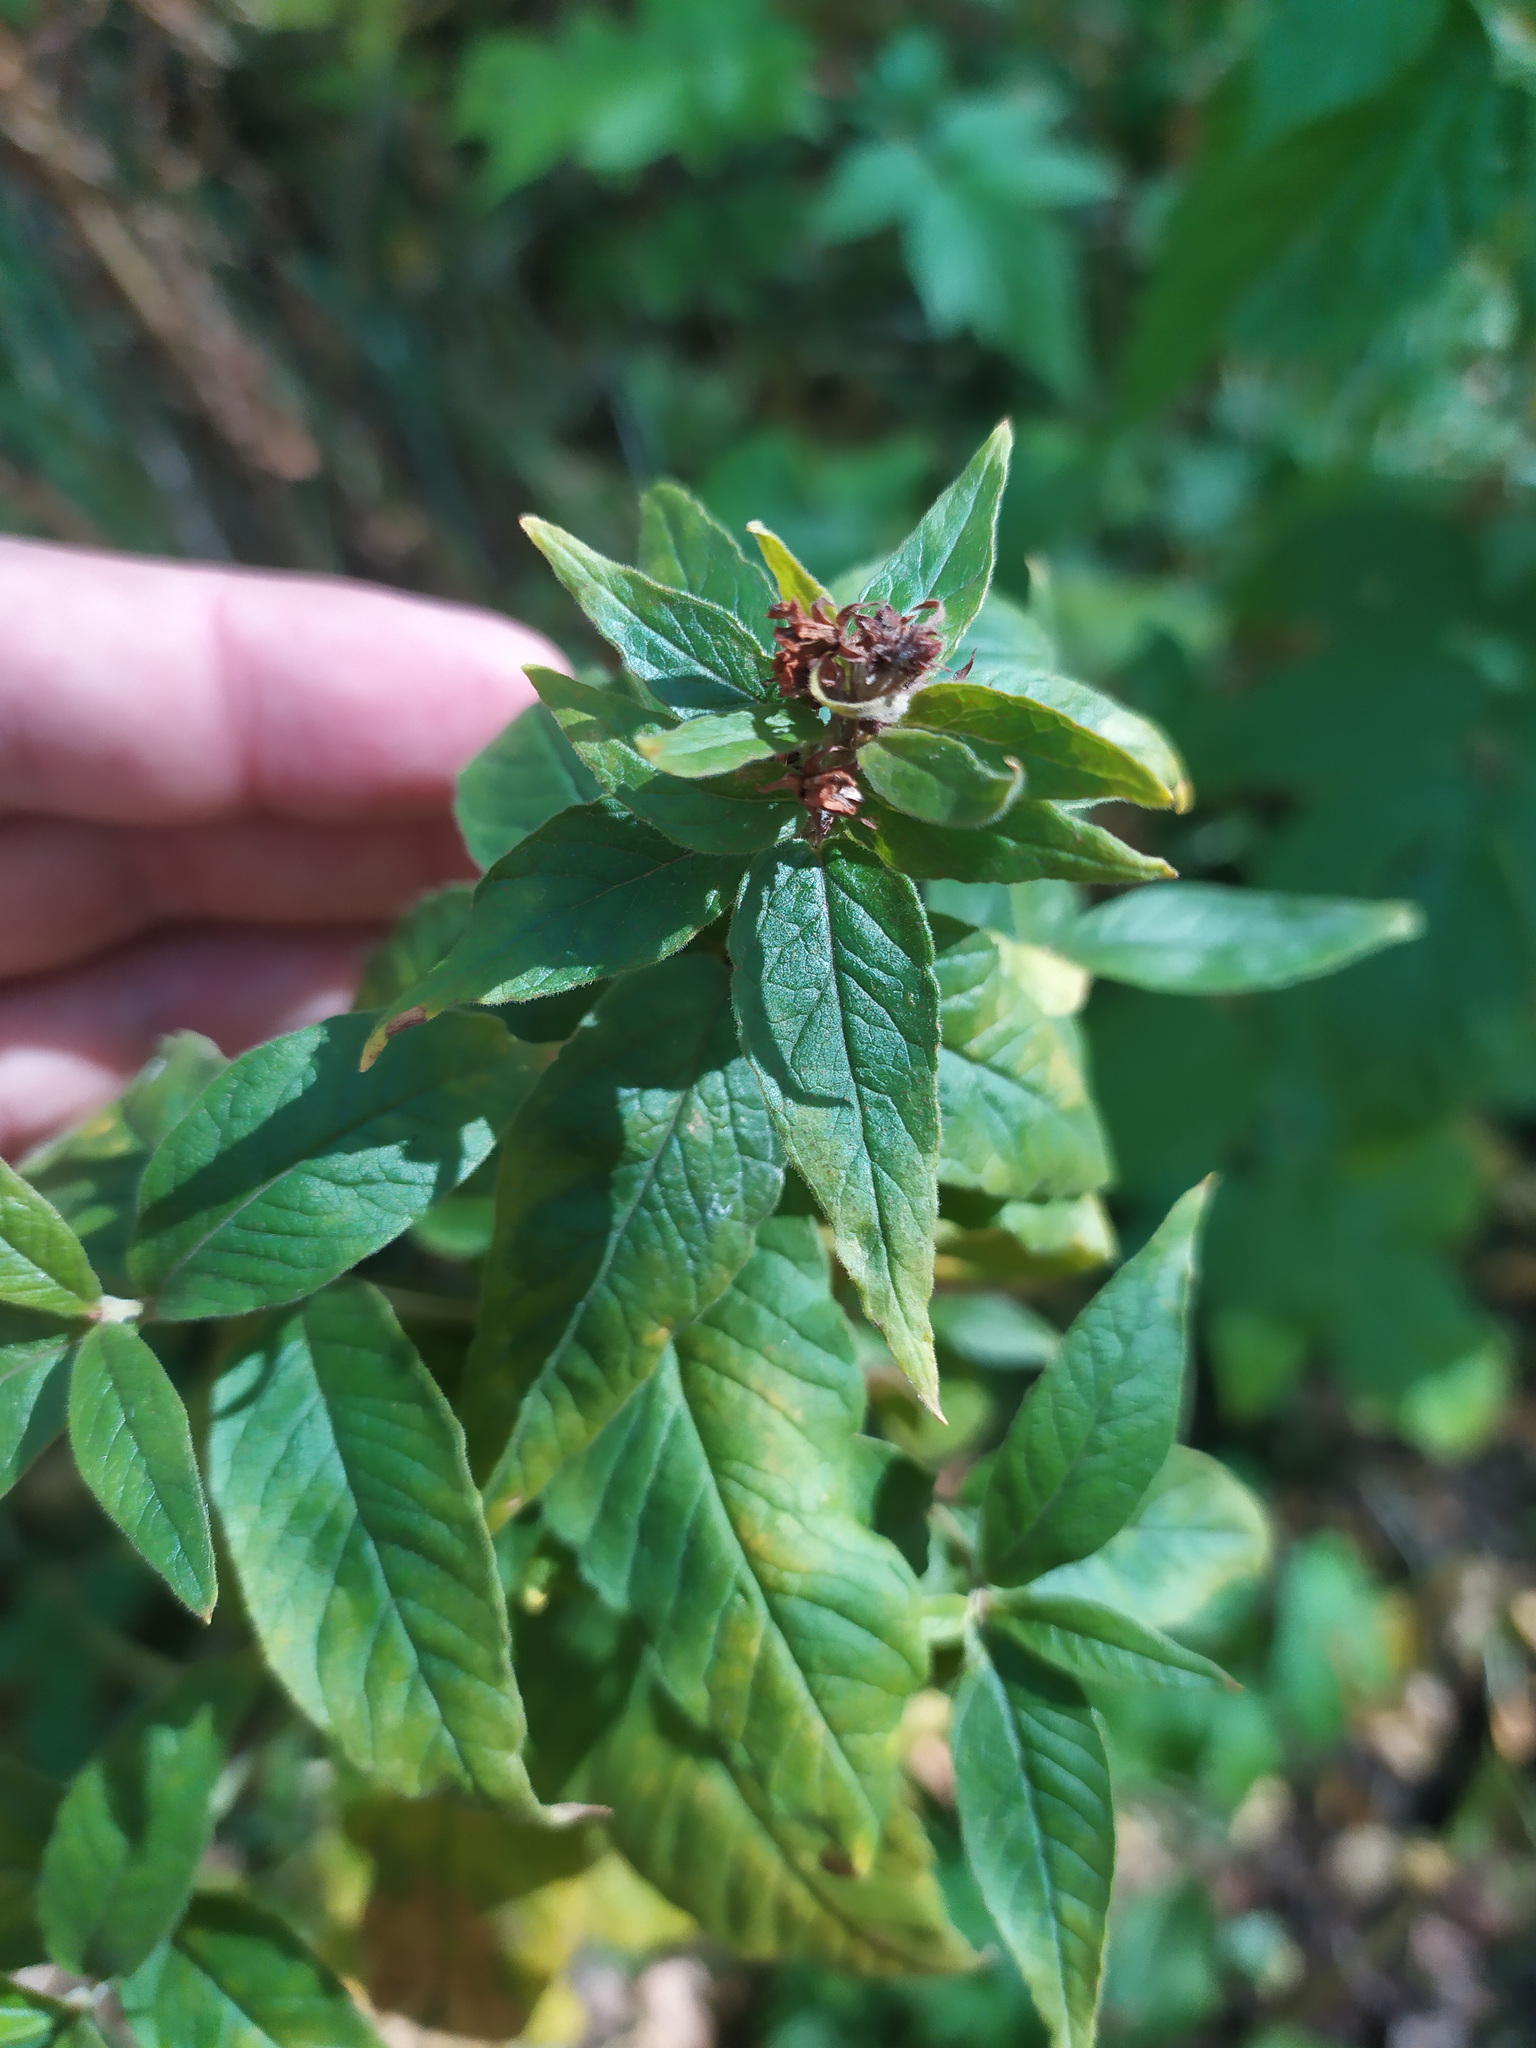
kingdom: Plantae
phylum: Tracheophyta
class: Magnoliopsida
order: Ericales
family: Primulaceae
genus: Lysimachia
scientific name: Lysimachia vulgaris
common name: Yellow loosestrife
